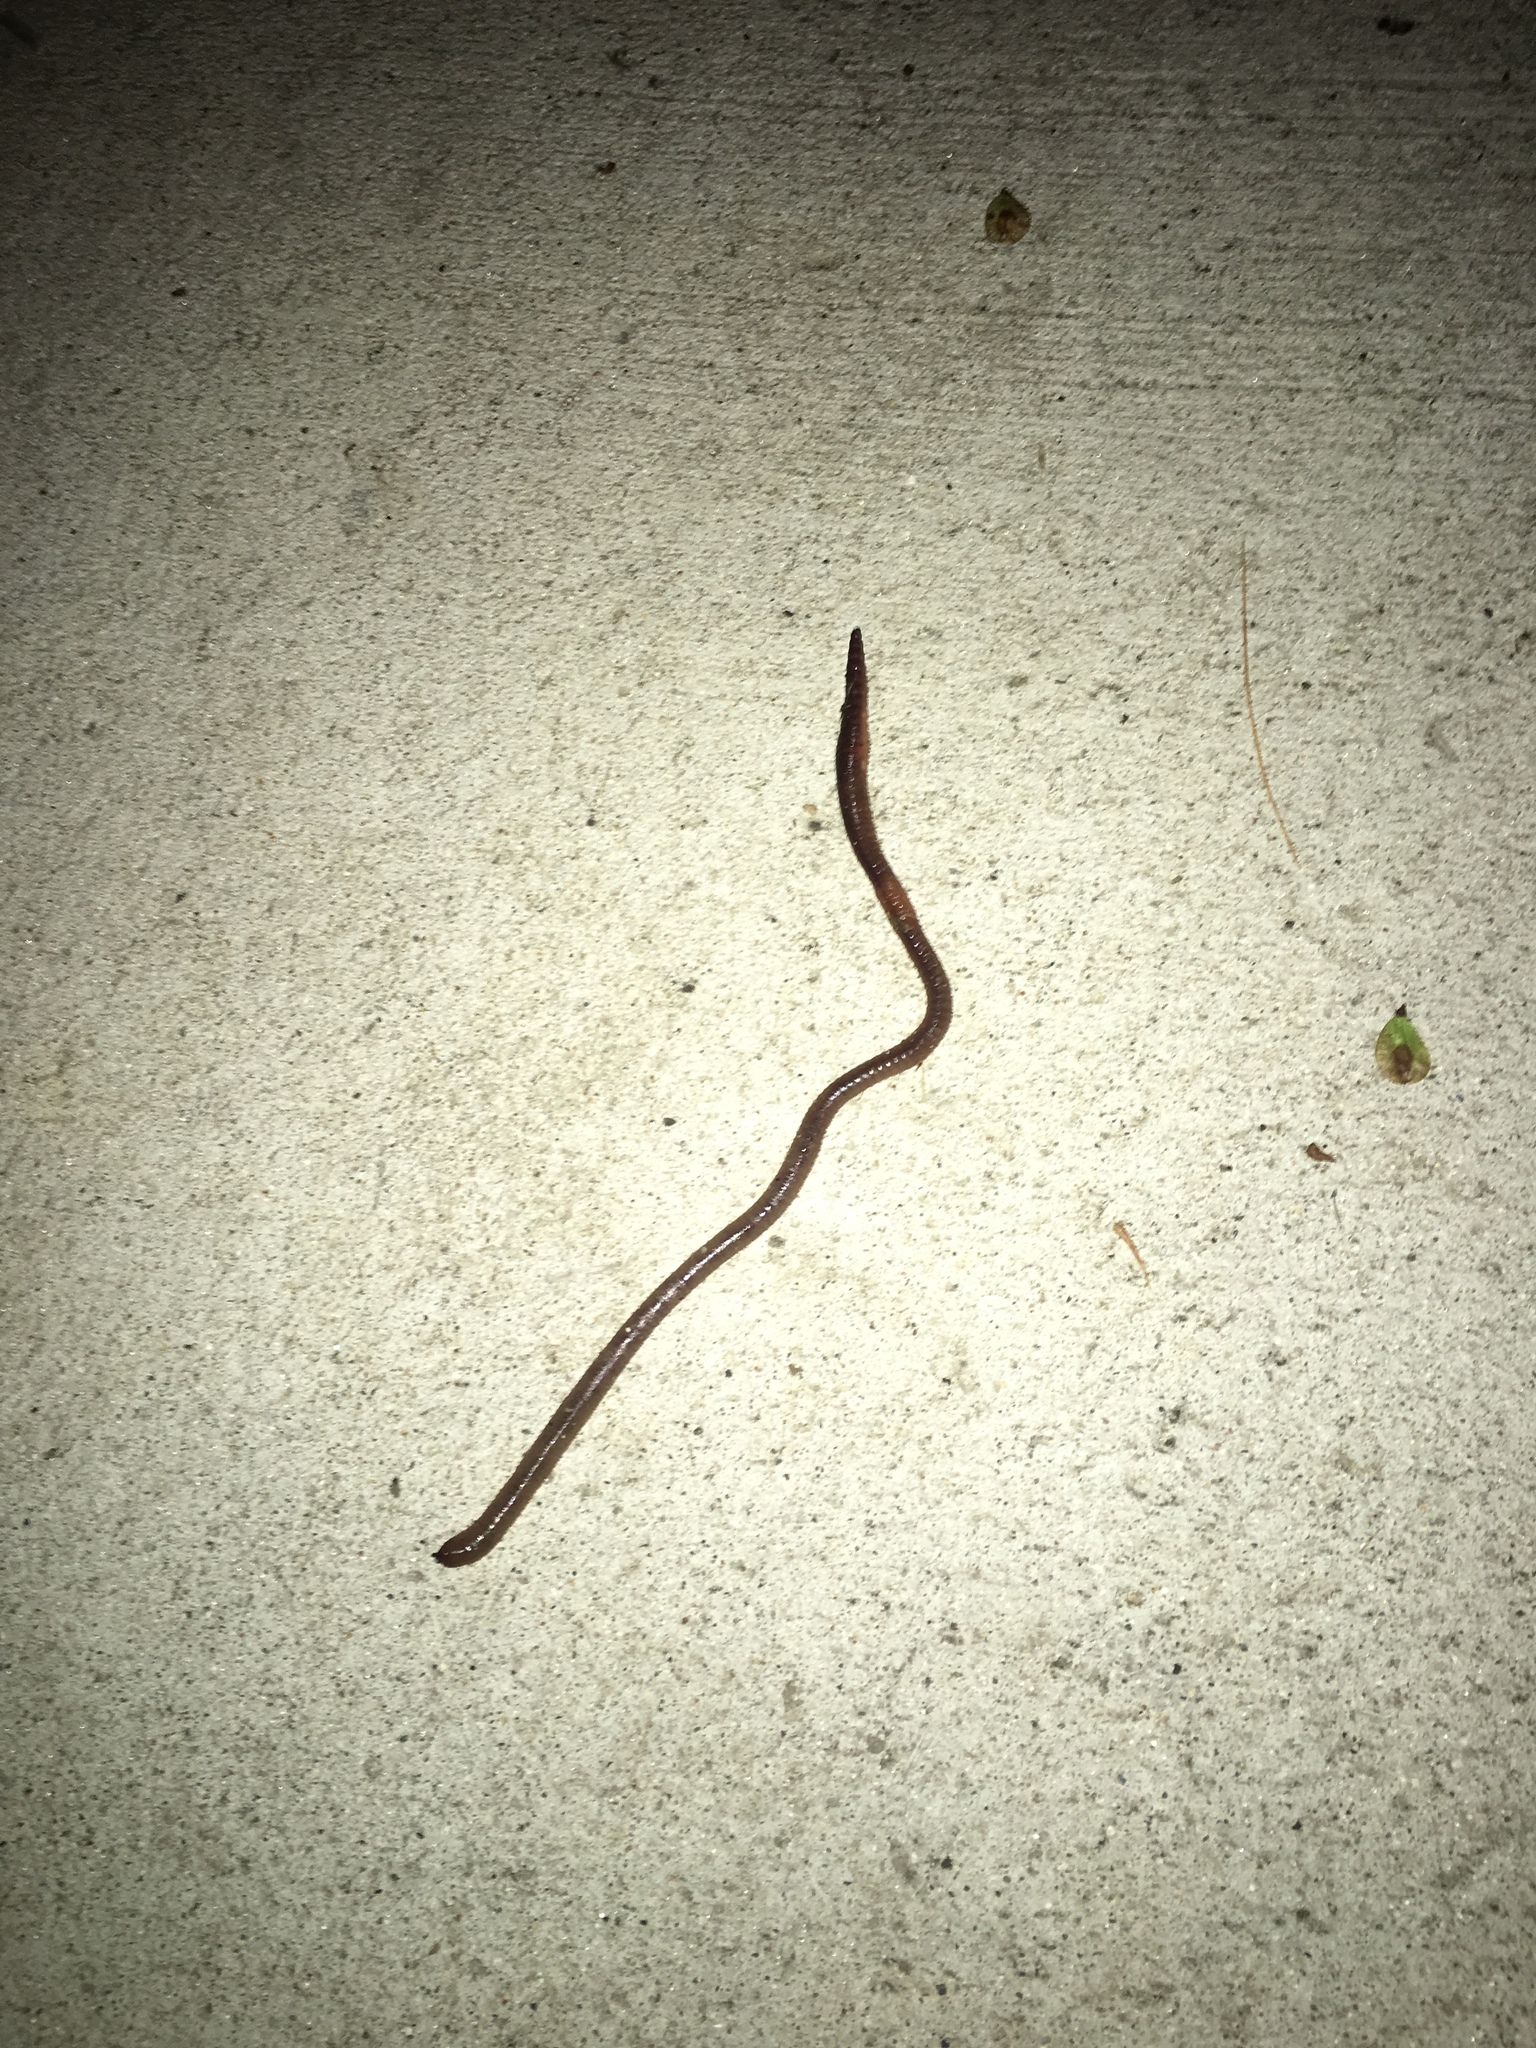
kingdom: Animalia
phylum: Annelida
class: Clitellata
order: Crassiclitellata
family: Lumbricidae
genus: Lumbricus
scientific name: Lumbricus terrestris
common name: Common earthworm
